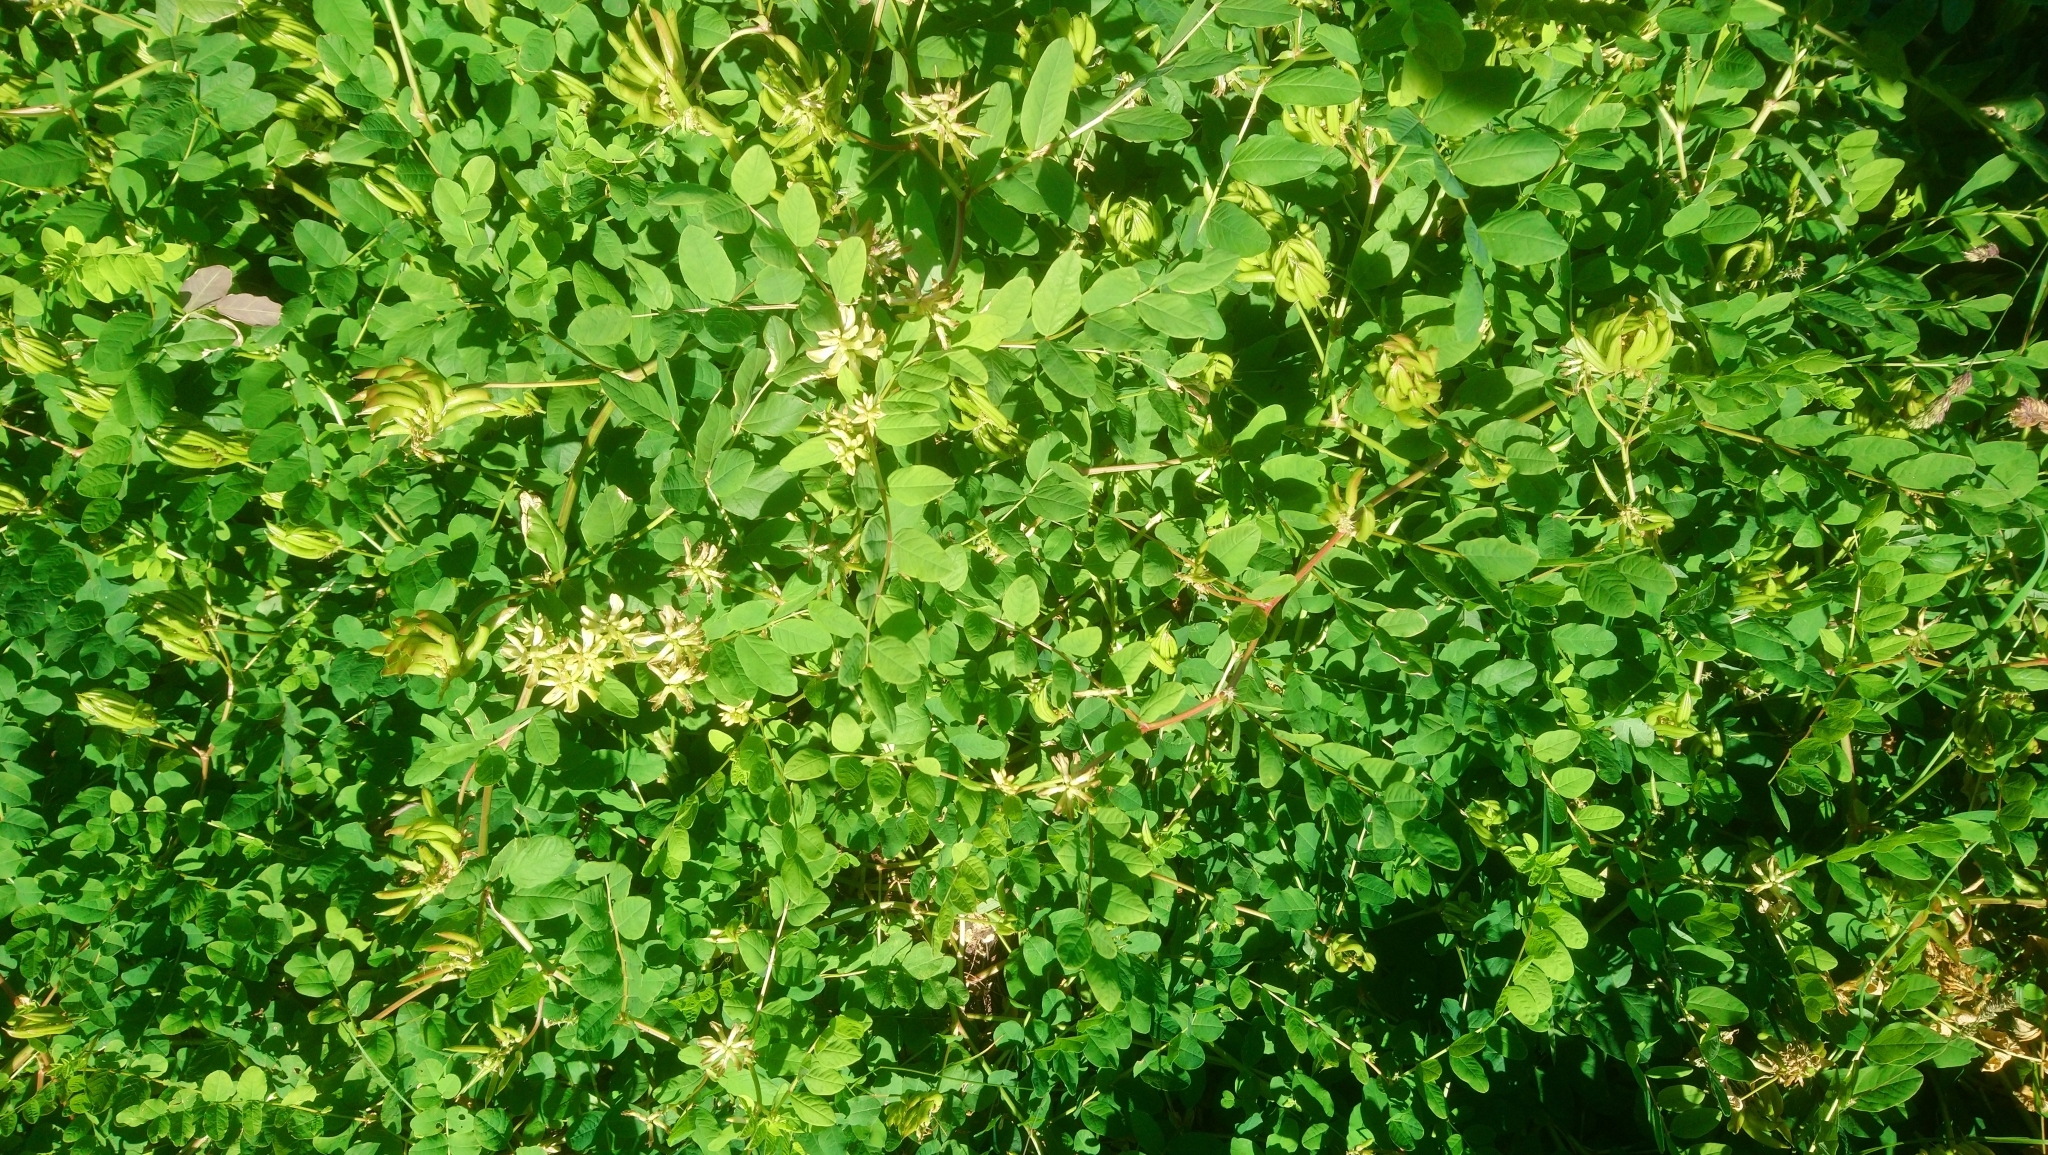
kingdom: Plantae
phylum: Tracheophyta
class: Magnoliopsida
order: Fabales
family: Fabaceae
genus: Astragalus
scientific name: Astragalus glycyphyllos
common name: Wild liquorice
